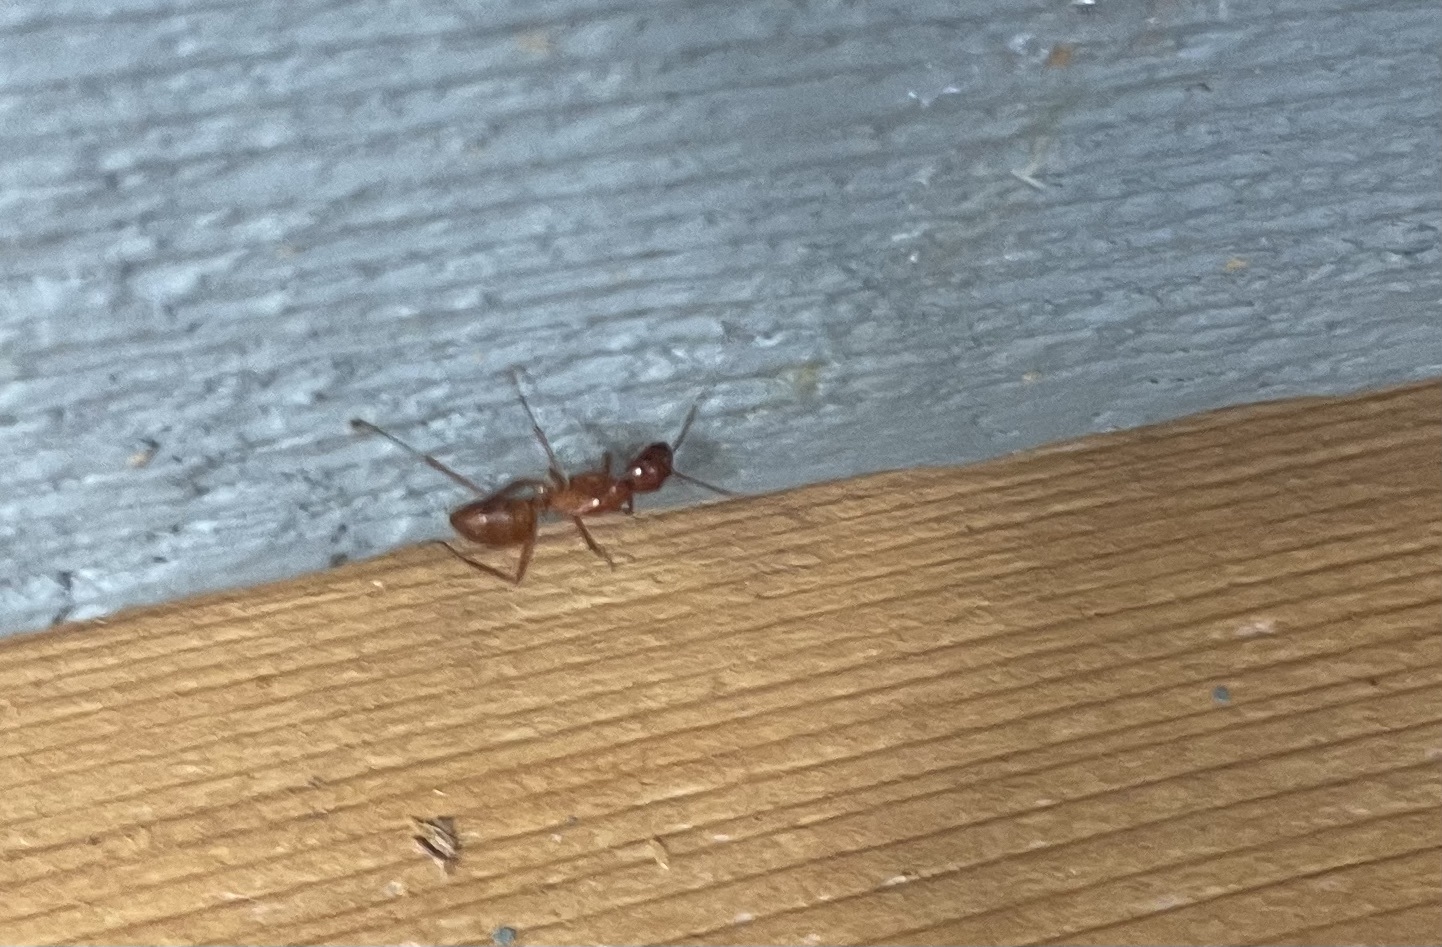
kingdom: Animalia
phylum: Arthropoda
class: Insecta
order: Hymenoptera
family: Formicidae
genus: Camponotus
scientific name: Camponotus castaneus
